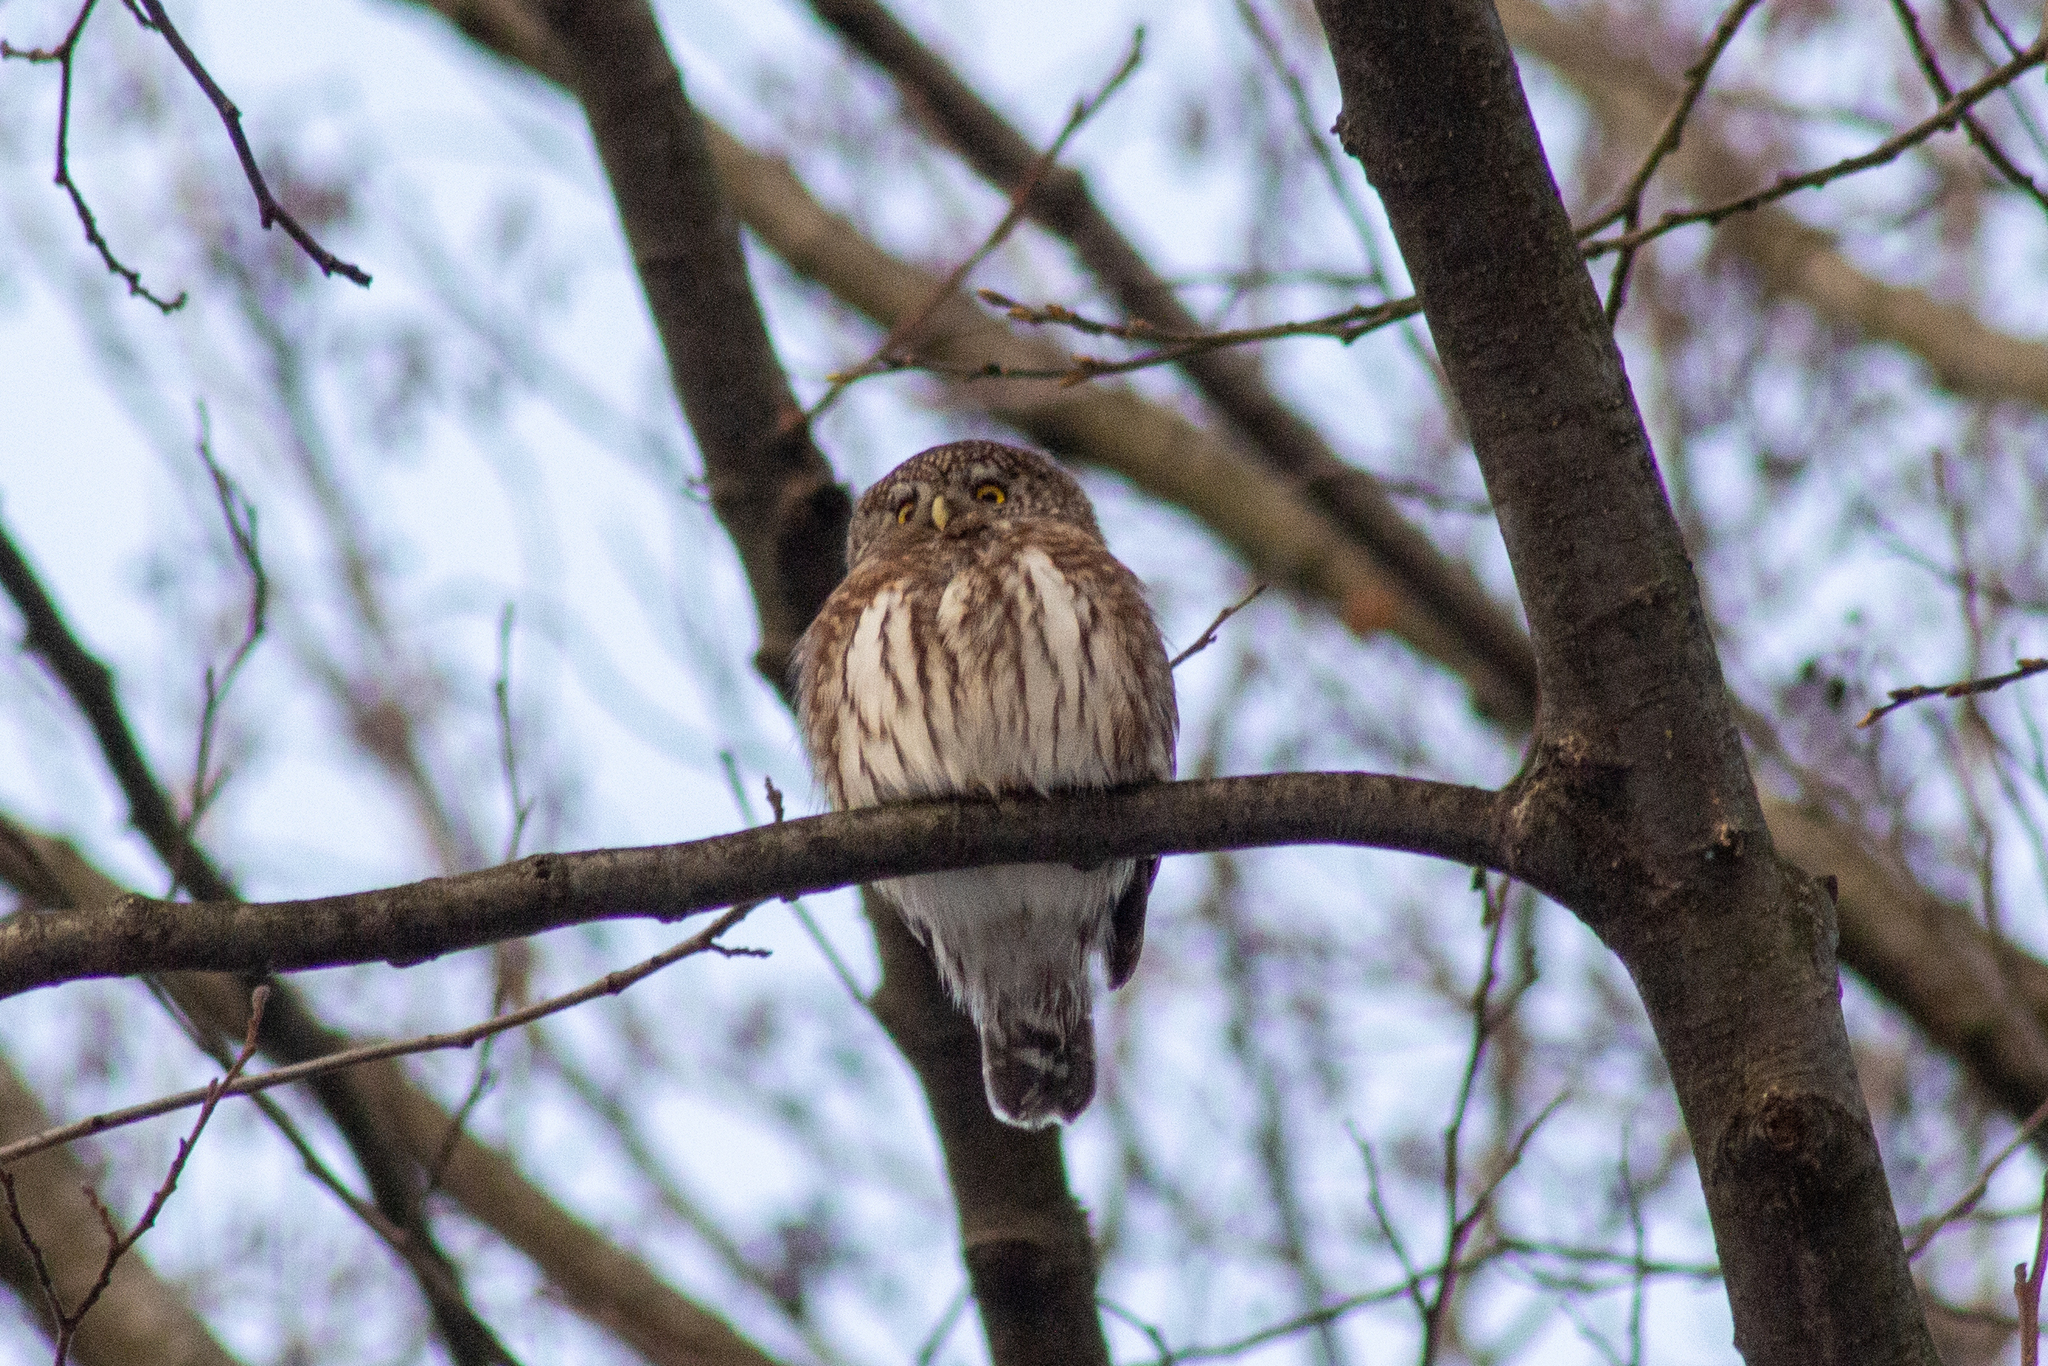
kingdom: Animalia
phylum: Chordata
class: Aves
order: Strigiformes
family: Strigidae
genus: Glaucidium
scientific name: Glaucidium passerinum
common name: Eurasian pygmy owl
